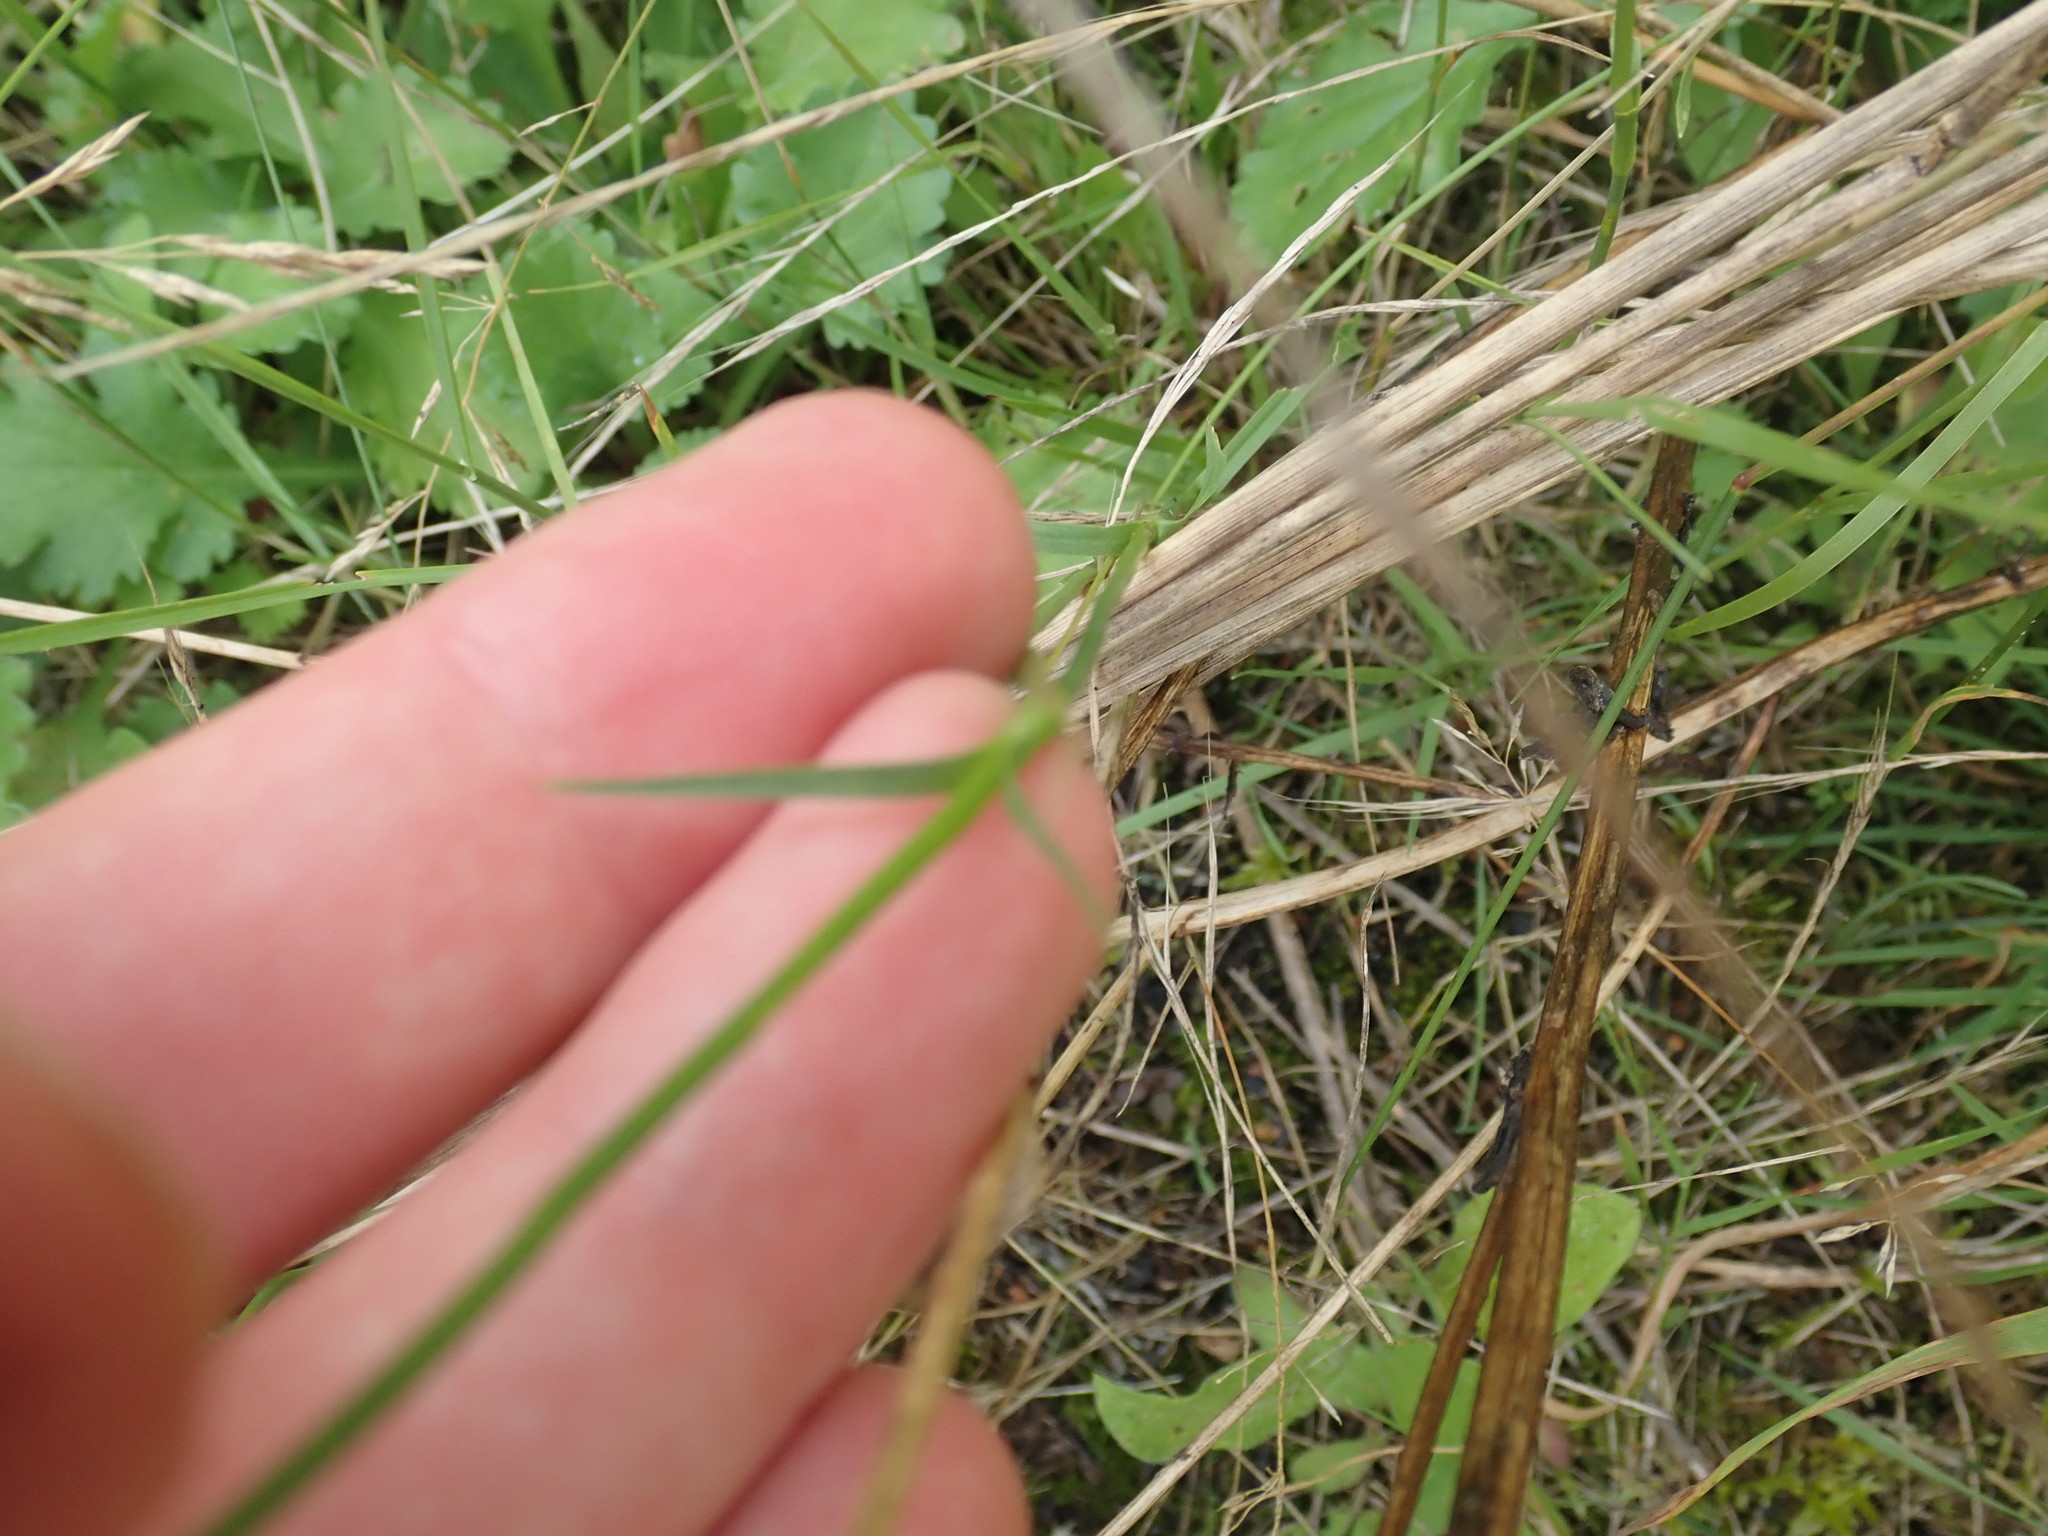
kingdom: Plantae
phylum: Tracheophyta
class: Magnoliopsida
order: Caryophyllales
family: Caryophyllaceae
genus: Dianthus
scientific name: Dianthus carthusianorum
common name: Carthusian pink
